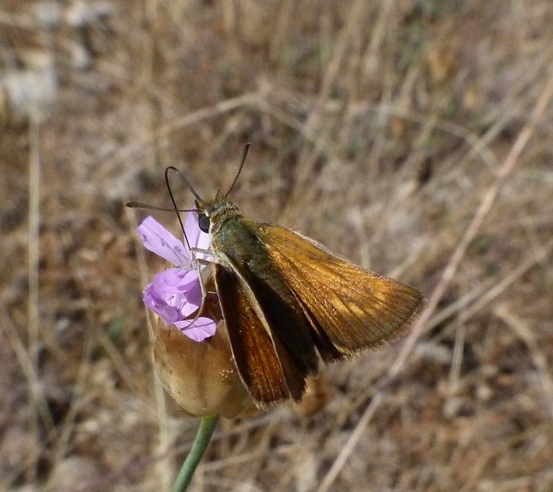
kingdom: Animalia
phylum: Arthropoda
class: Insecta
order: Lepidoptera
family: Hesperiidae
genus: Thymelicus
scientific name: Thymelicus acteon
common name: Lulworth skipper
